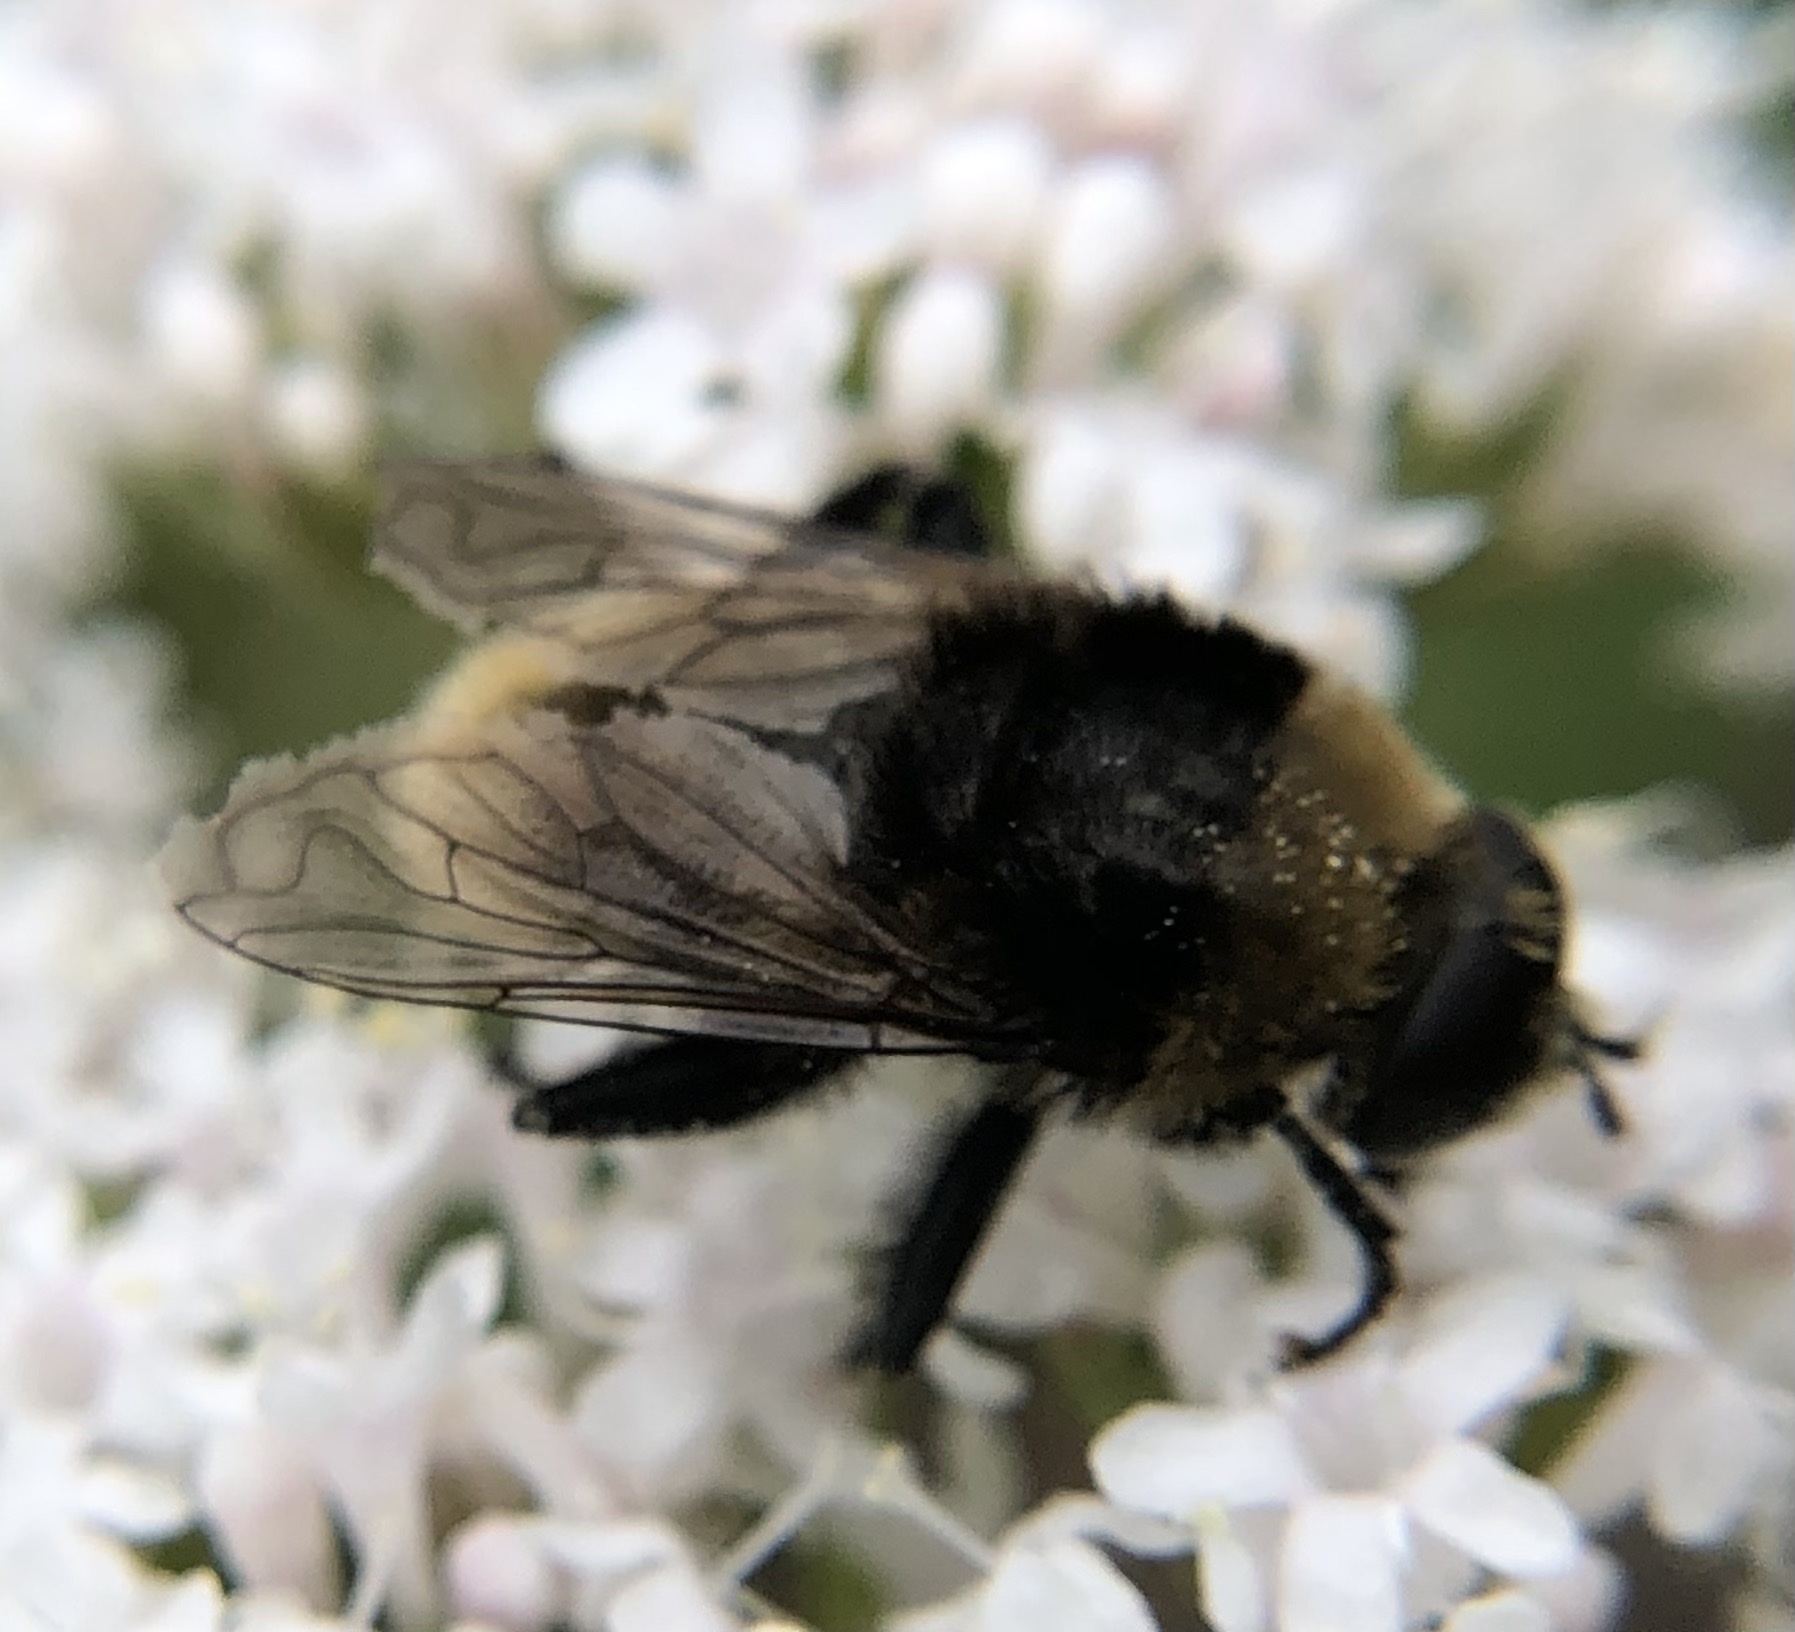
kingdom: Animalia
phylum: Arthropoda
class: Insecta
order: Diptera
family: Syrphidae
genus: Merodon
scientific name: Merodon equestris
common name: Greater bulb-fly
